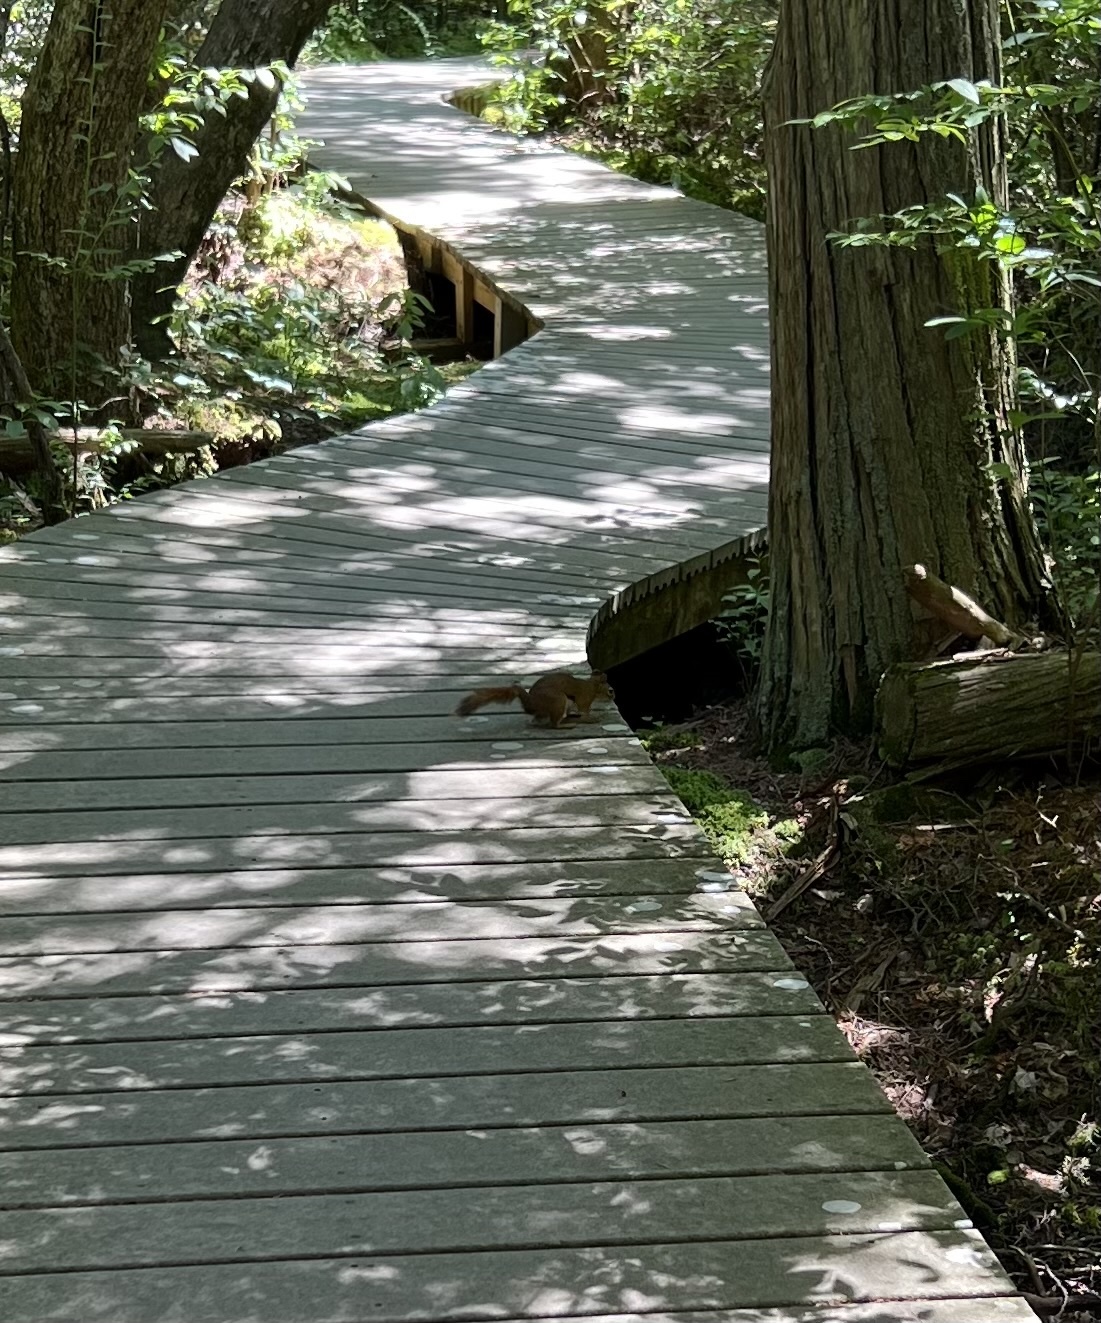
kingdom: Animalia
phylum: Chordata
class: Mammalia
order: Rodentia
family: Sciuridae
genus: Tamiasciurus
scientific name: Tamiasciurus hudsonicus
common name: Red squirrel
